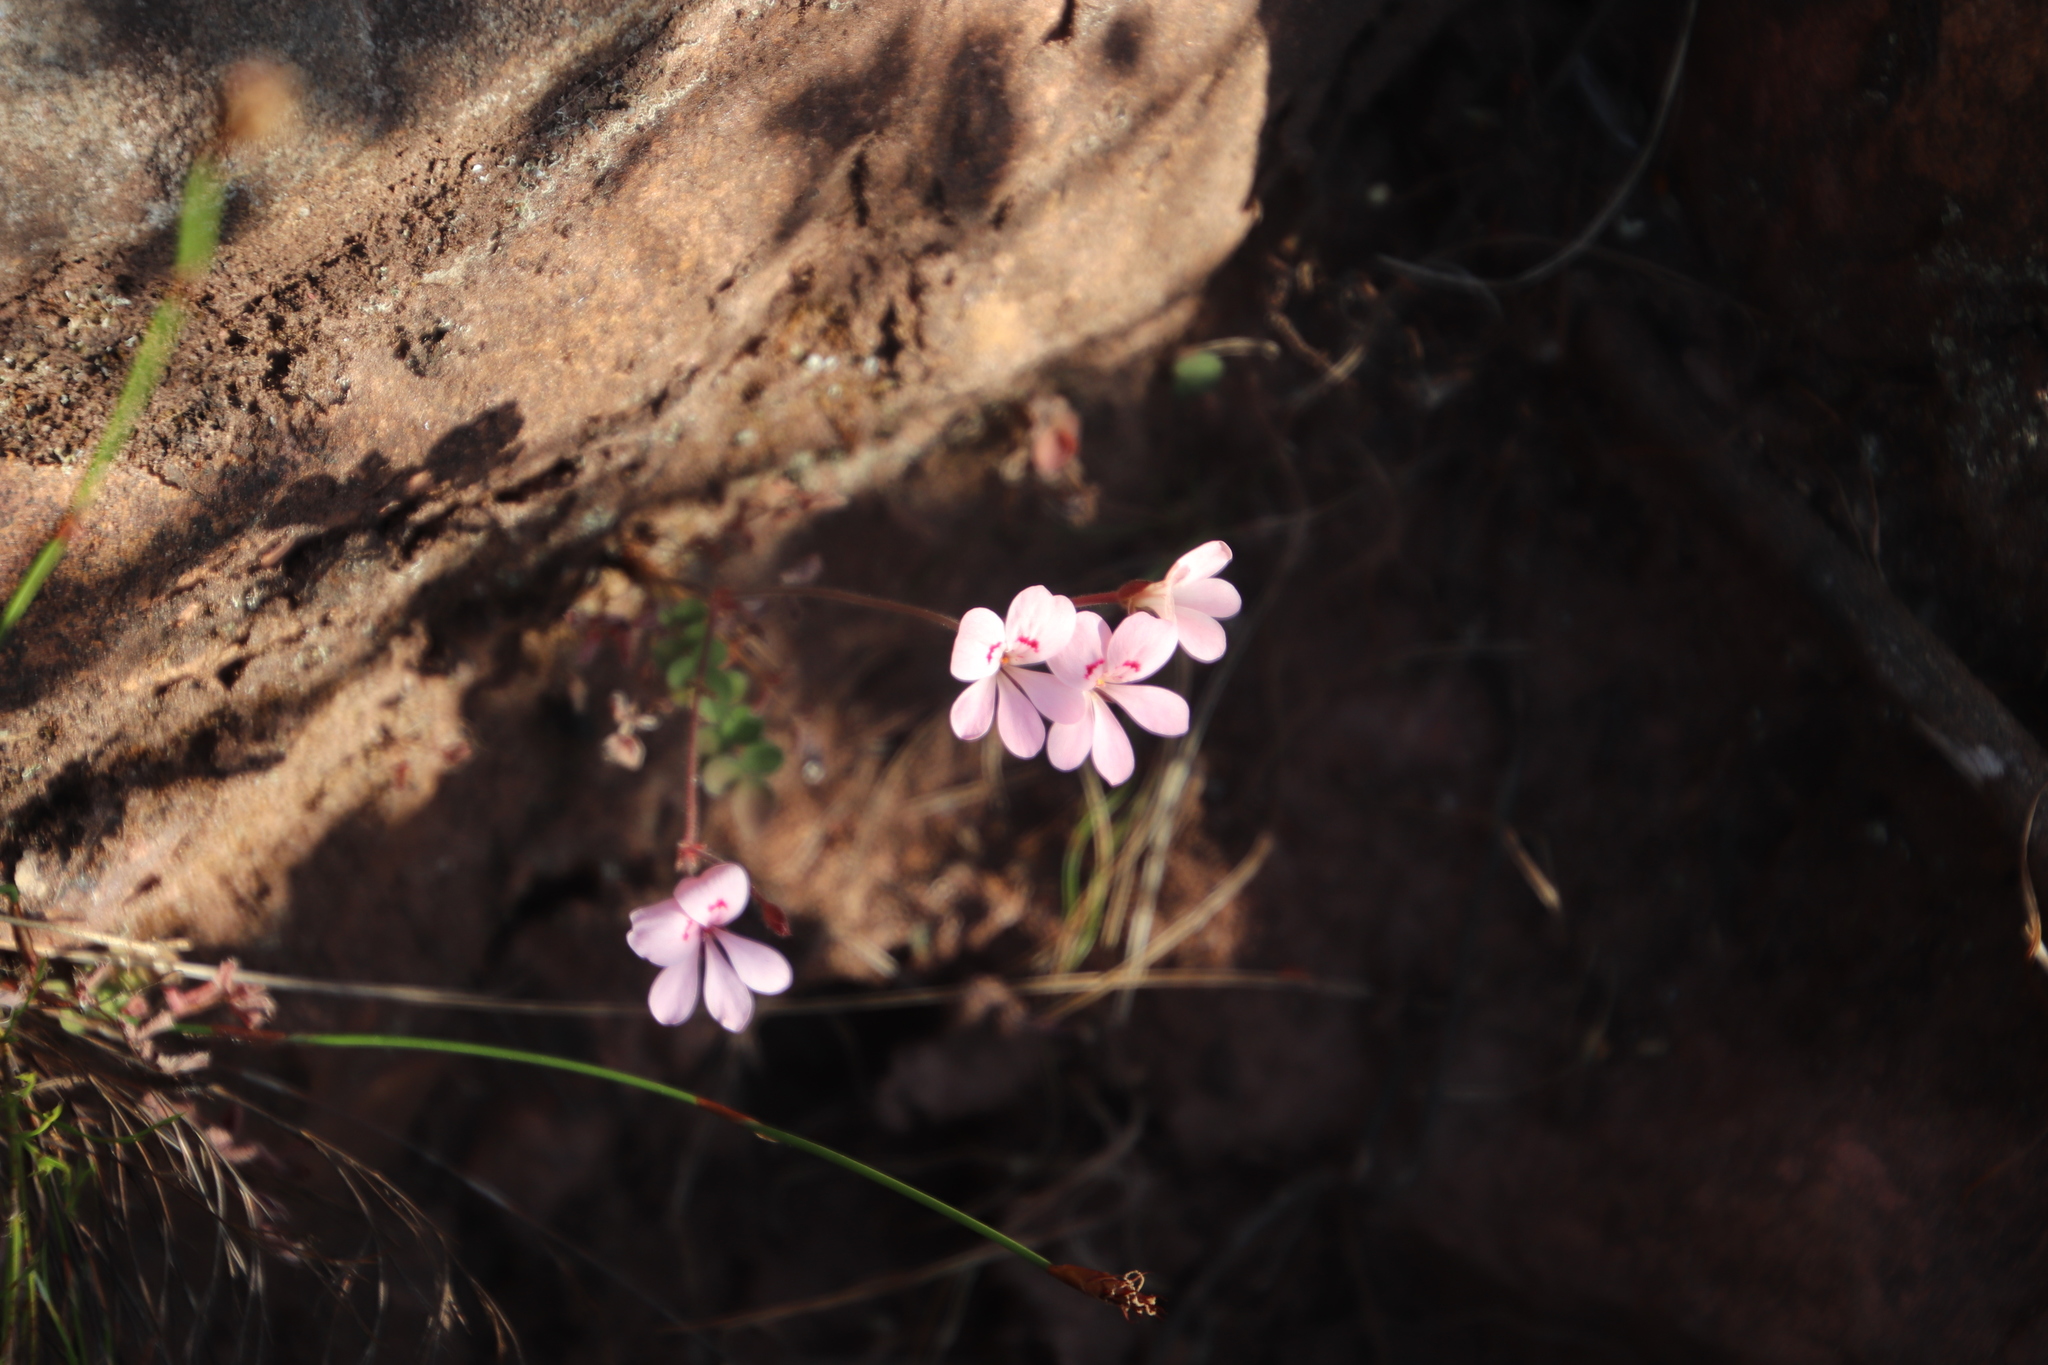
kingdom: Plantae
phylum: Tracheophyta
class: Magnoliopsida
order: Geraniales
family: Geraniaceae
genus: Pelargonium
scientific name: Pelargonium pinnatum
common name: Pinnated pelargonium
